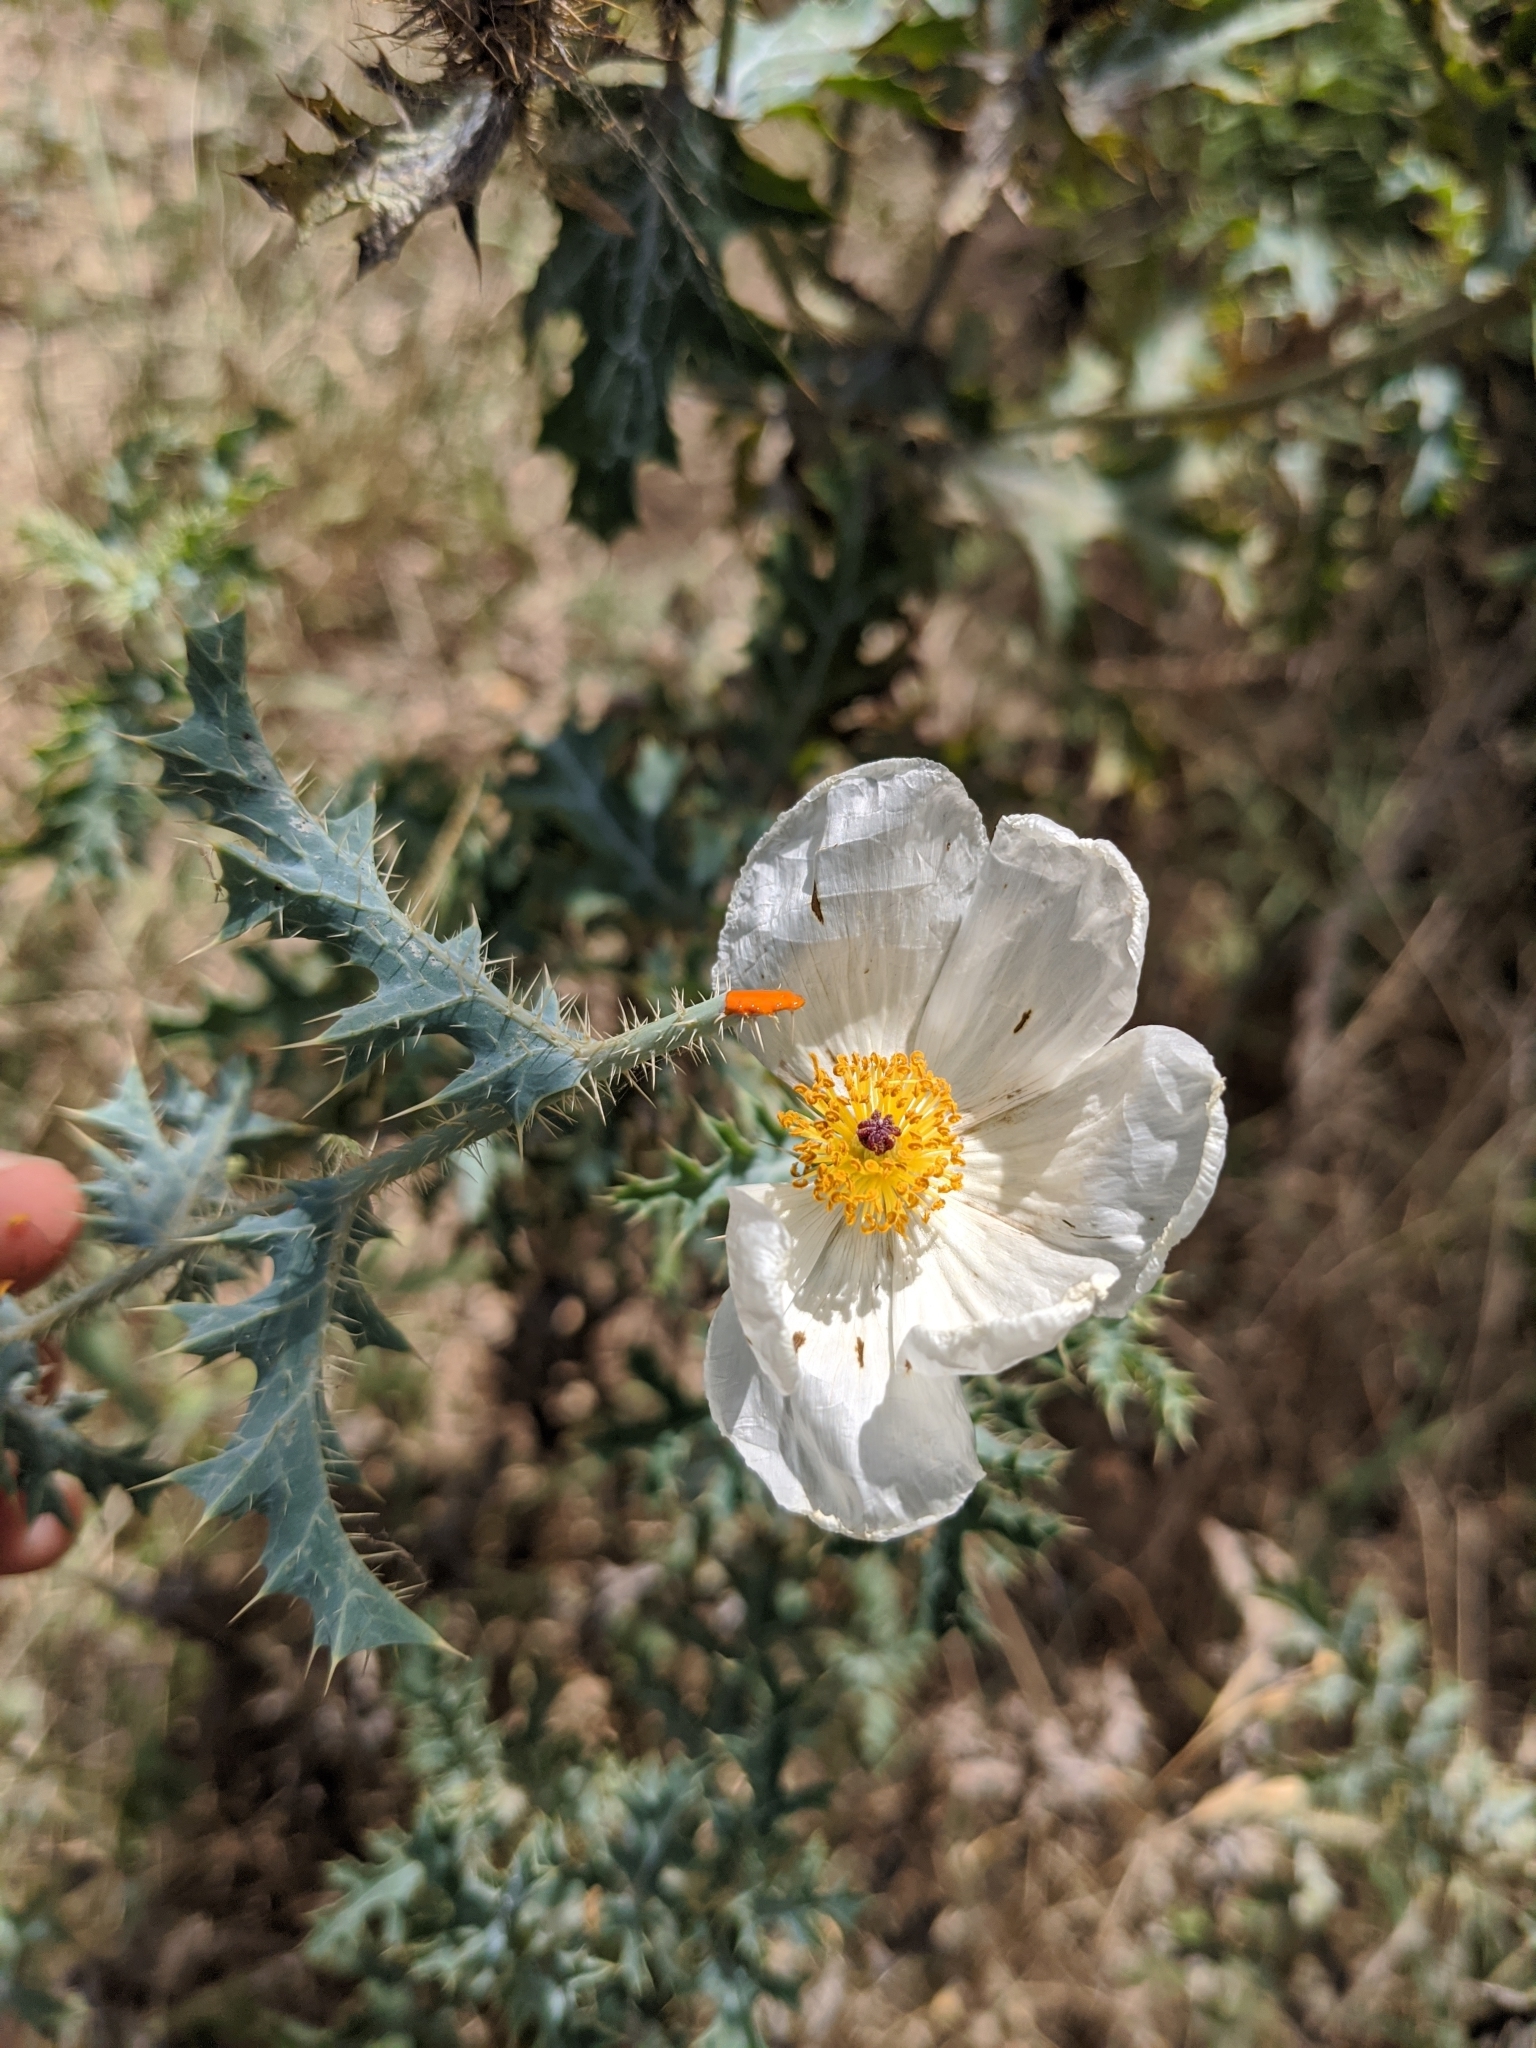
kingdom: Plantae
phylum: Tracheophyta
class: Magnoliopsida
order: Ranunculales
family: Papaveraceae
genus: Argemone
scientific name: Argemone aurantiaca
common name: Texas prickly-poppy
